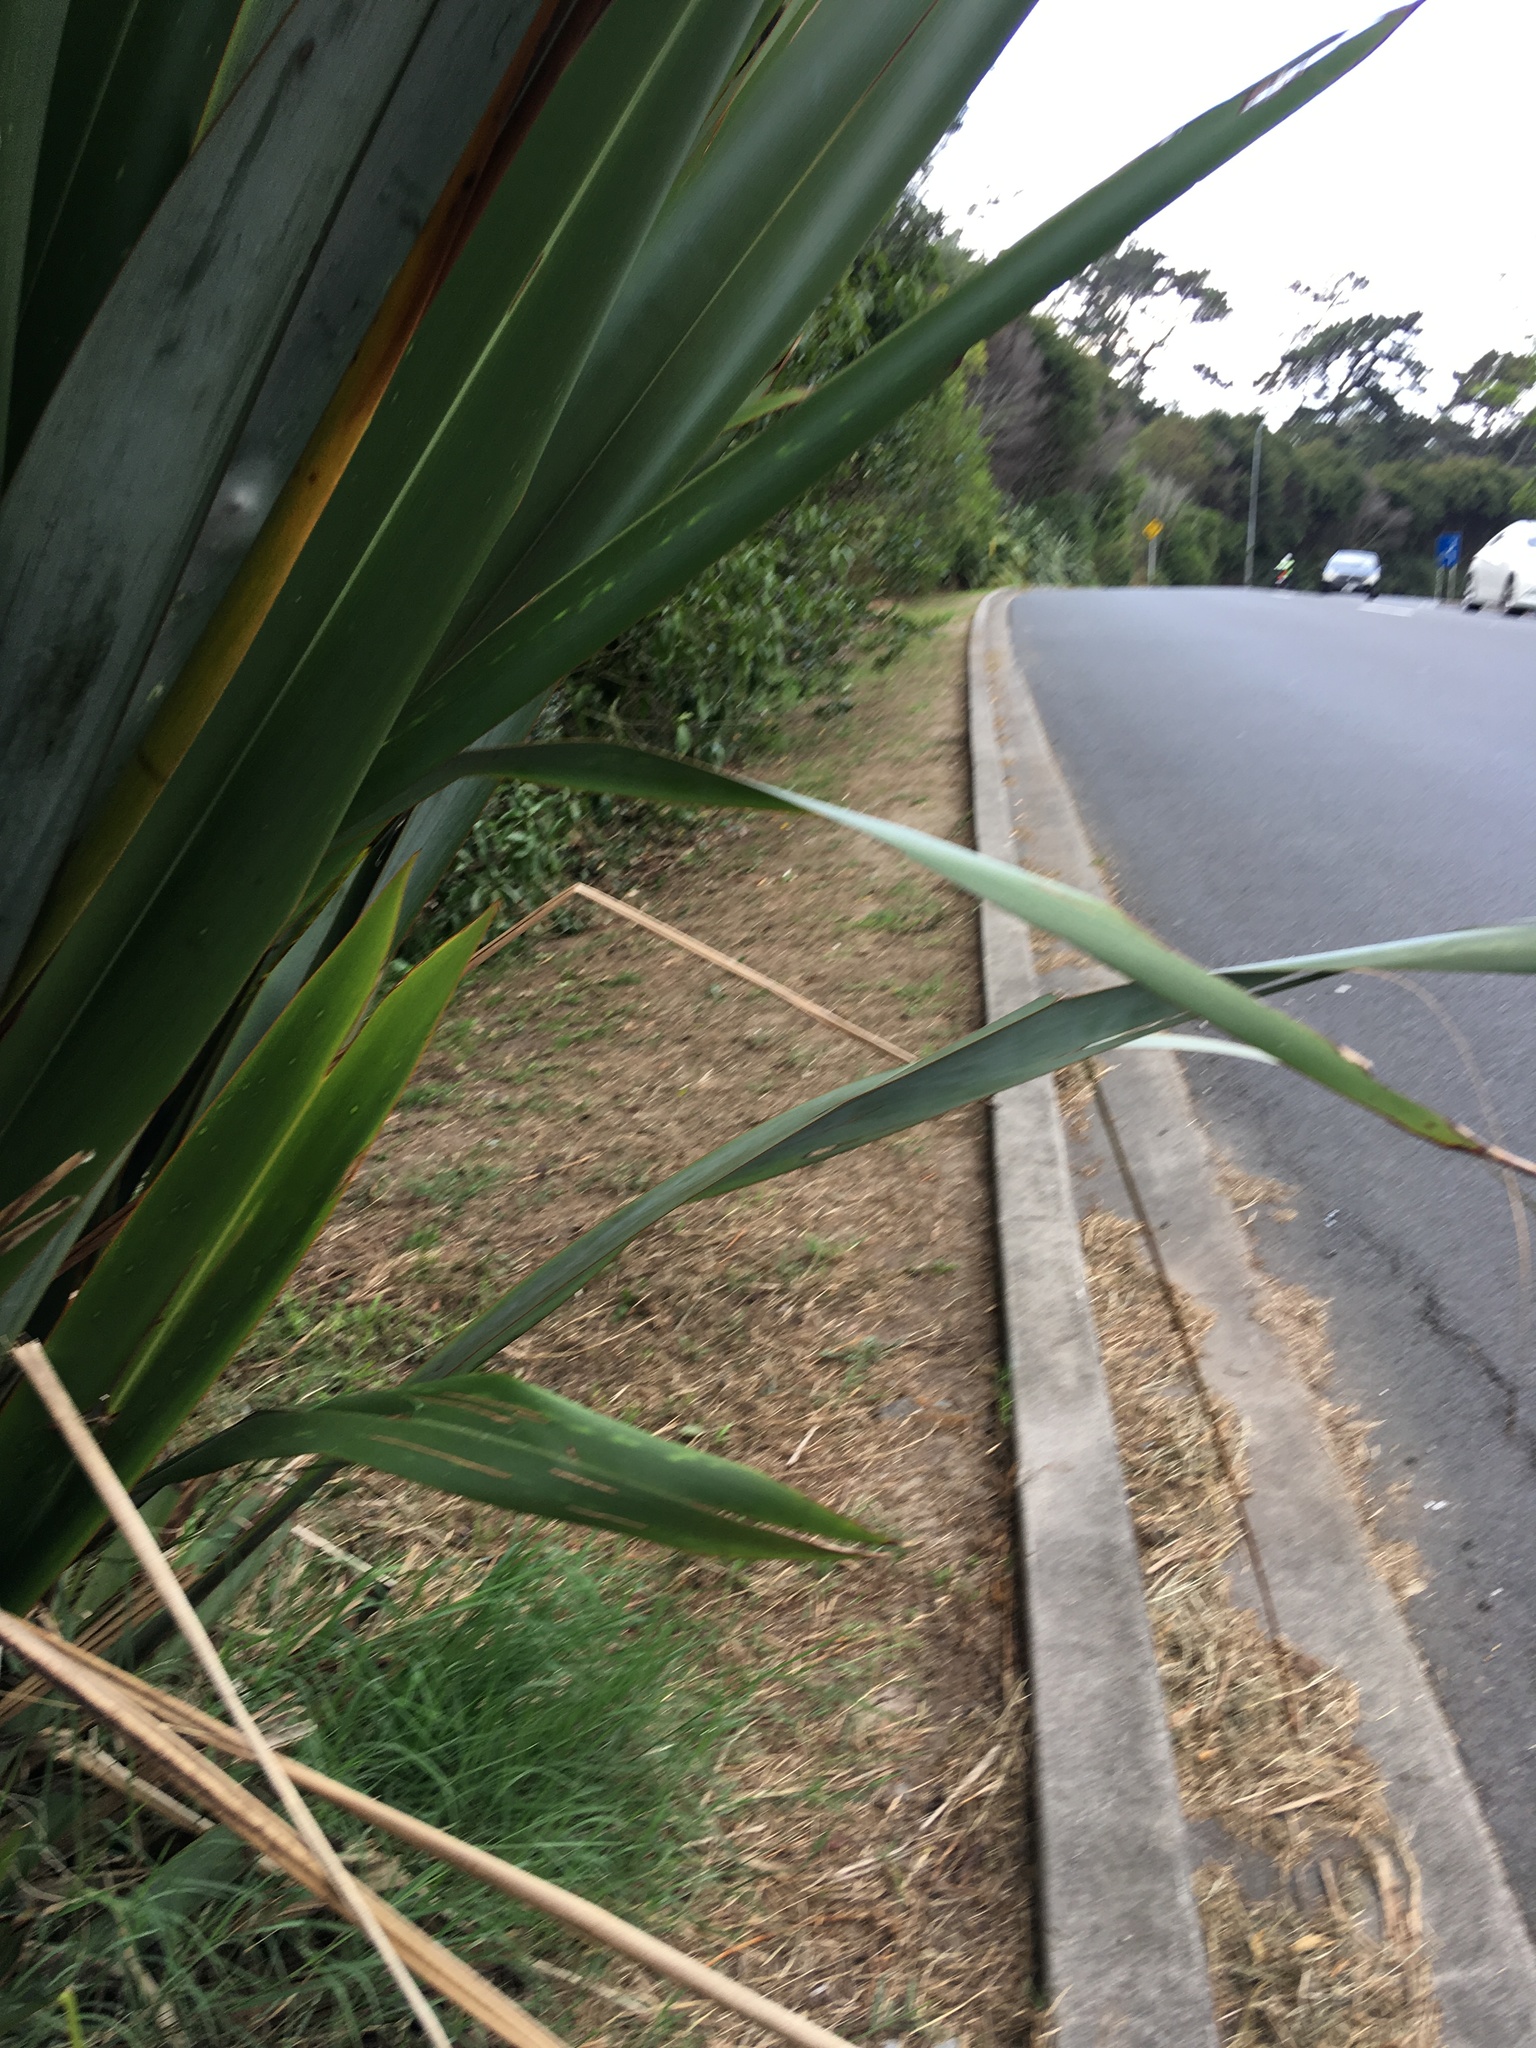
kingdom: Plantae
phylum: Tracheophyta
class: Liliopsida
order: Asparagales
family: Asphodelaceae
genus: Phormium
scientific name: Phormium tenax
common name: New zealand flax
